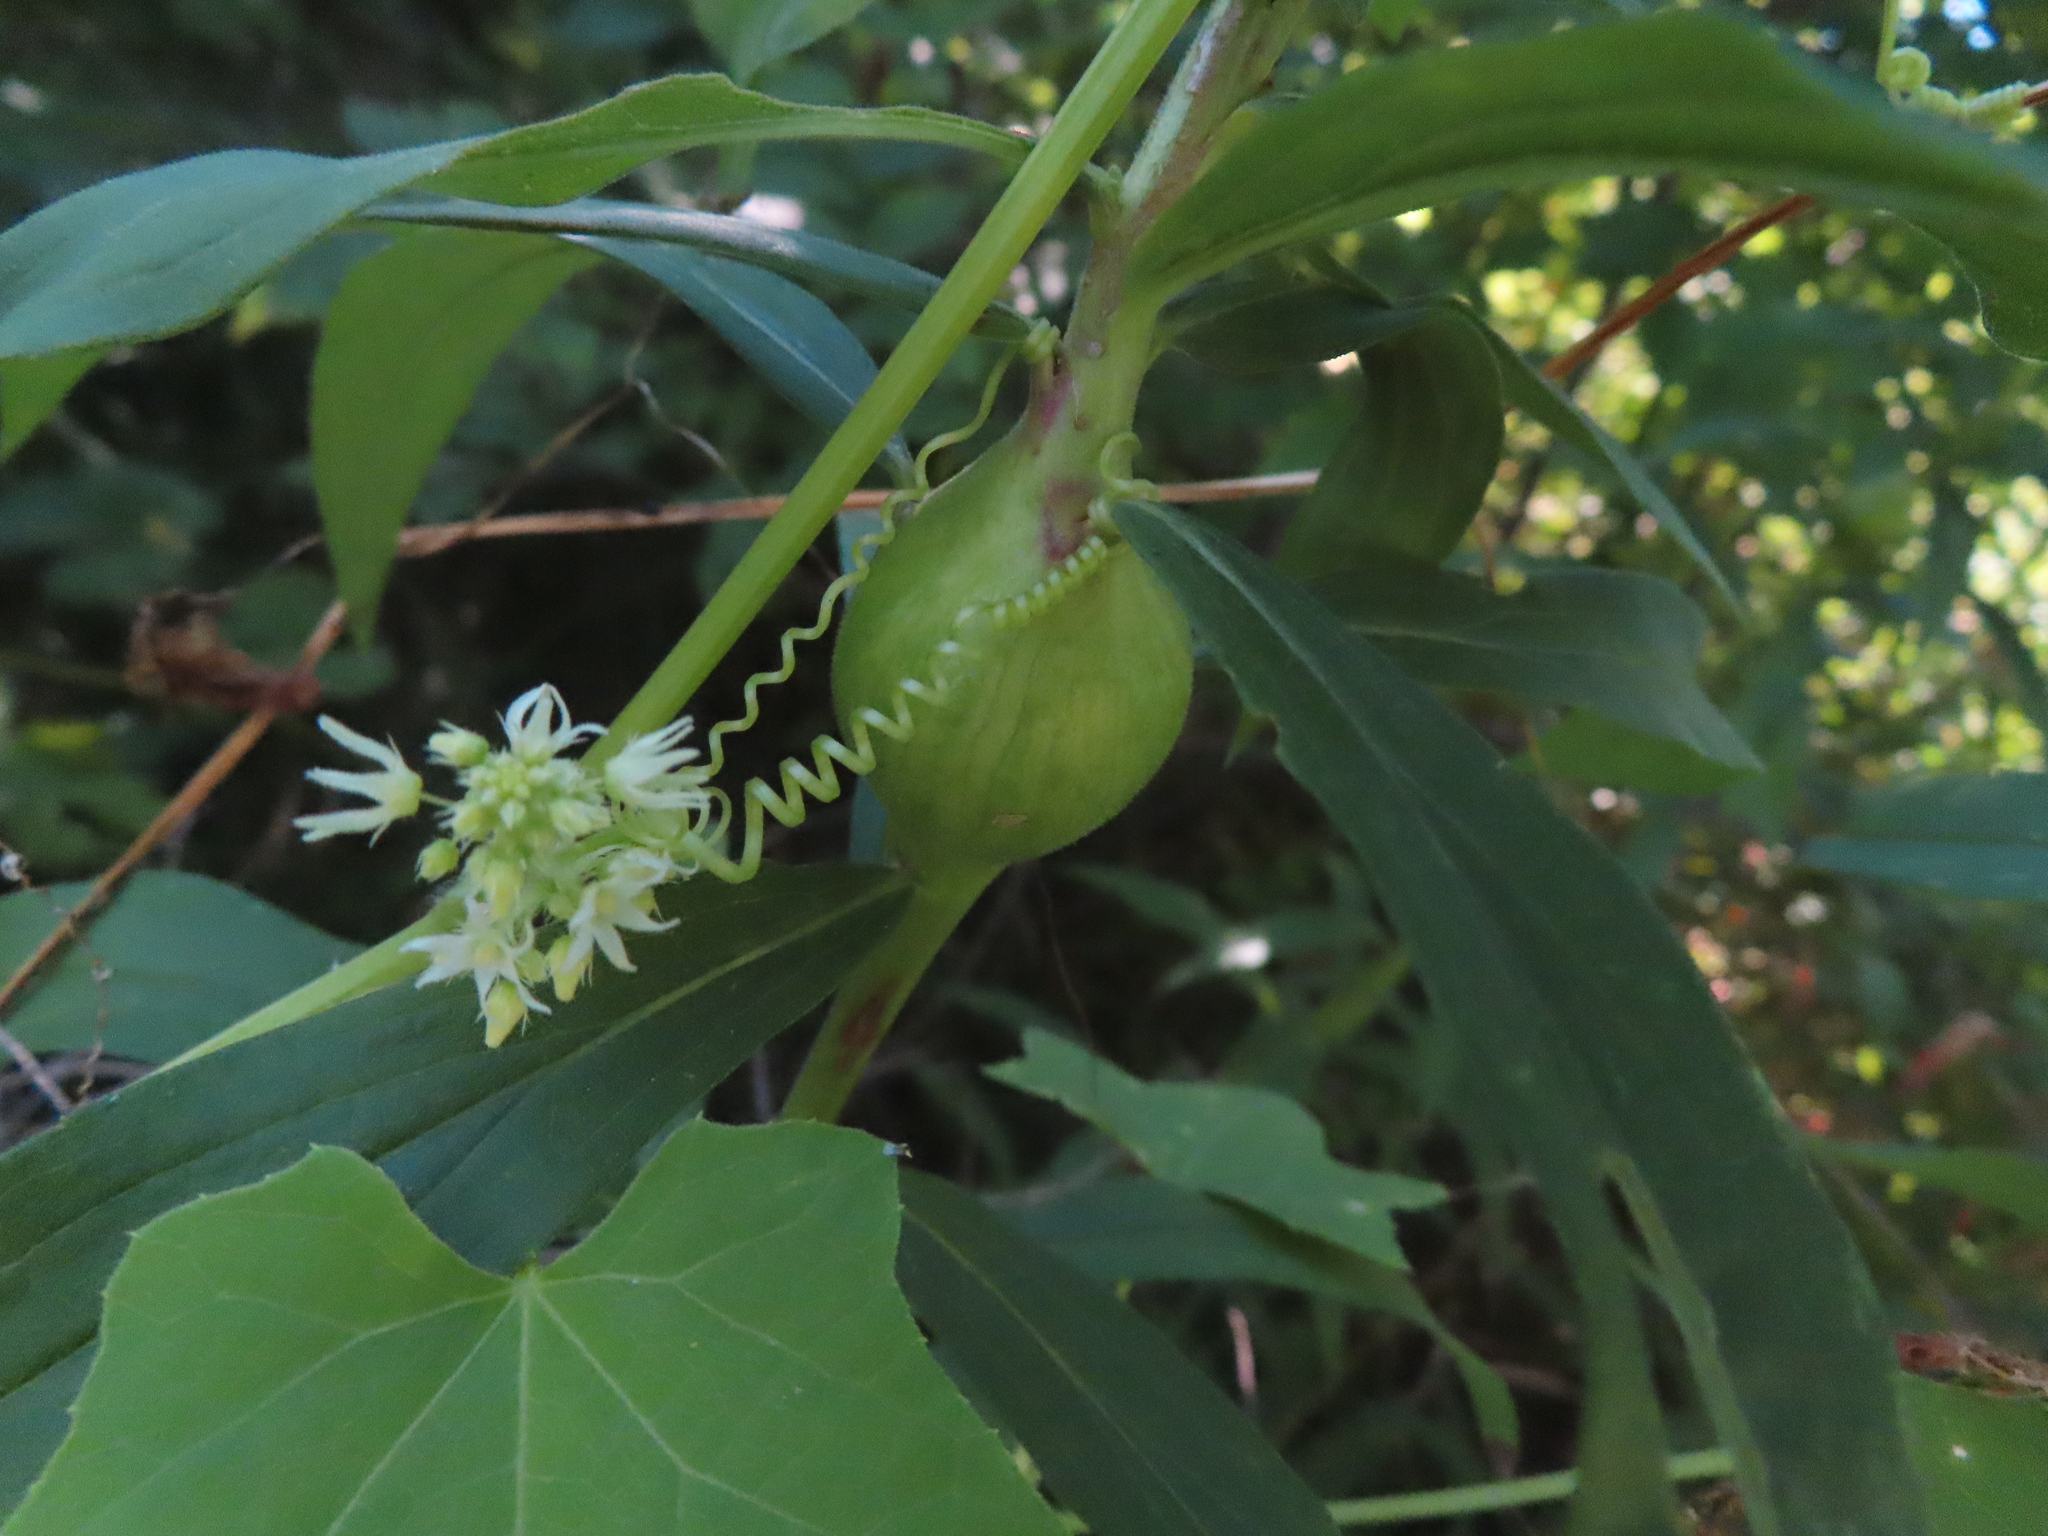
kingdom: Animalia
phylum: Arthropoda
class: Insecta
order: Diptera
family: Tephritidae
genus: Eurosta
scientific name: Eurosta solidaginis
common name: Goldenrod gall fly
